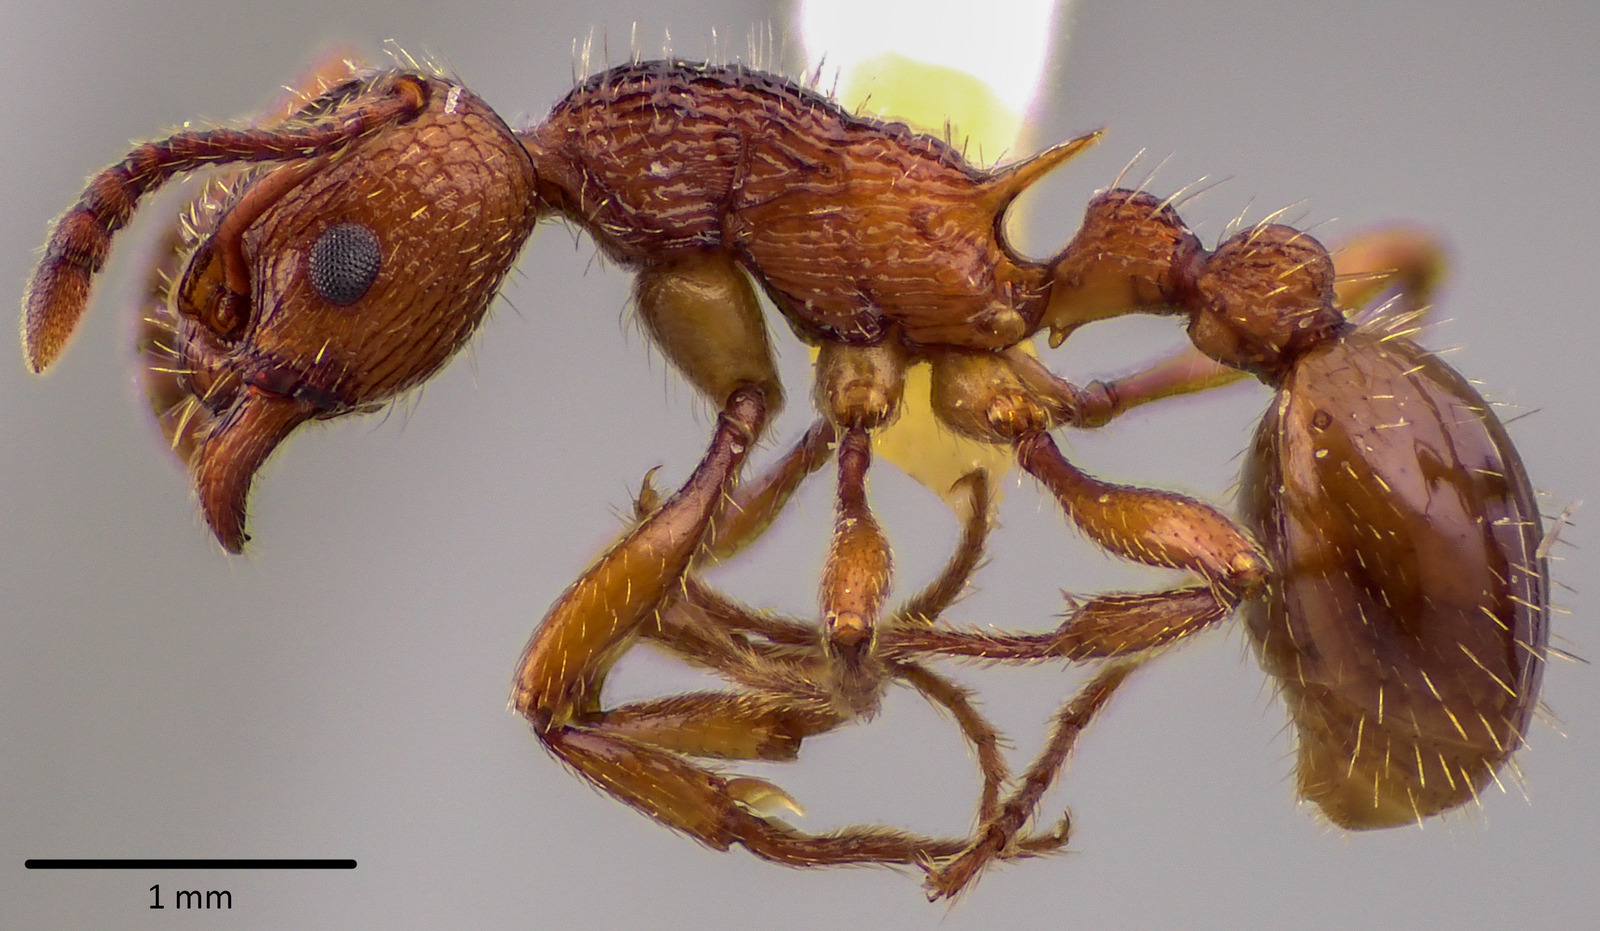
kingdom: Animalia
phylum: Arthropoda
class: Insecta
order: Hymenoptera
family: Formicidae
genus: Myrmica
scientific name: Myrmica americana
